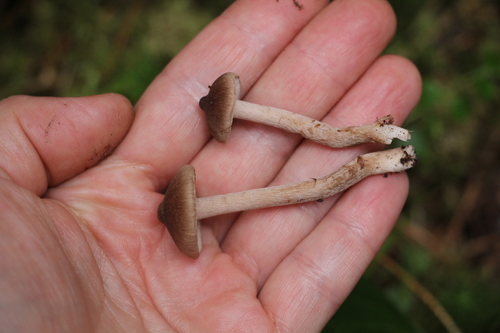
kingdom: Fungi
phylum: Basidiomycota
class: Agaricomycetes
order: Agaricales
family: Inocybaceae
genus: Inocybe
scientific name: Inocybe putilla
